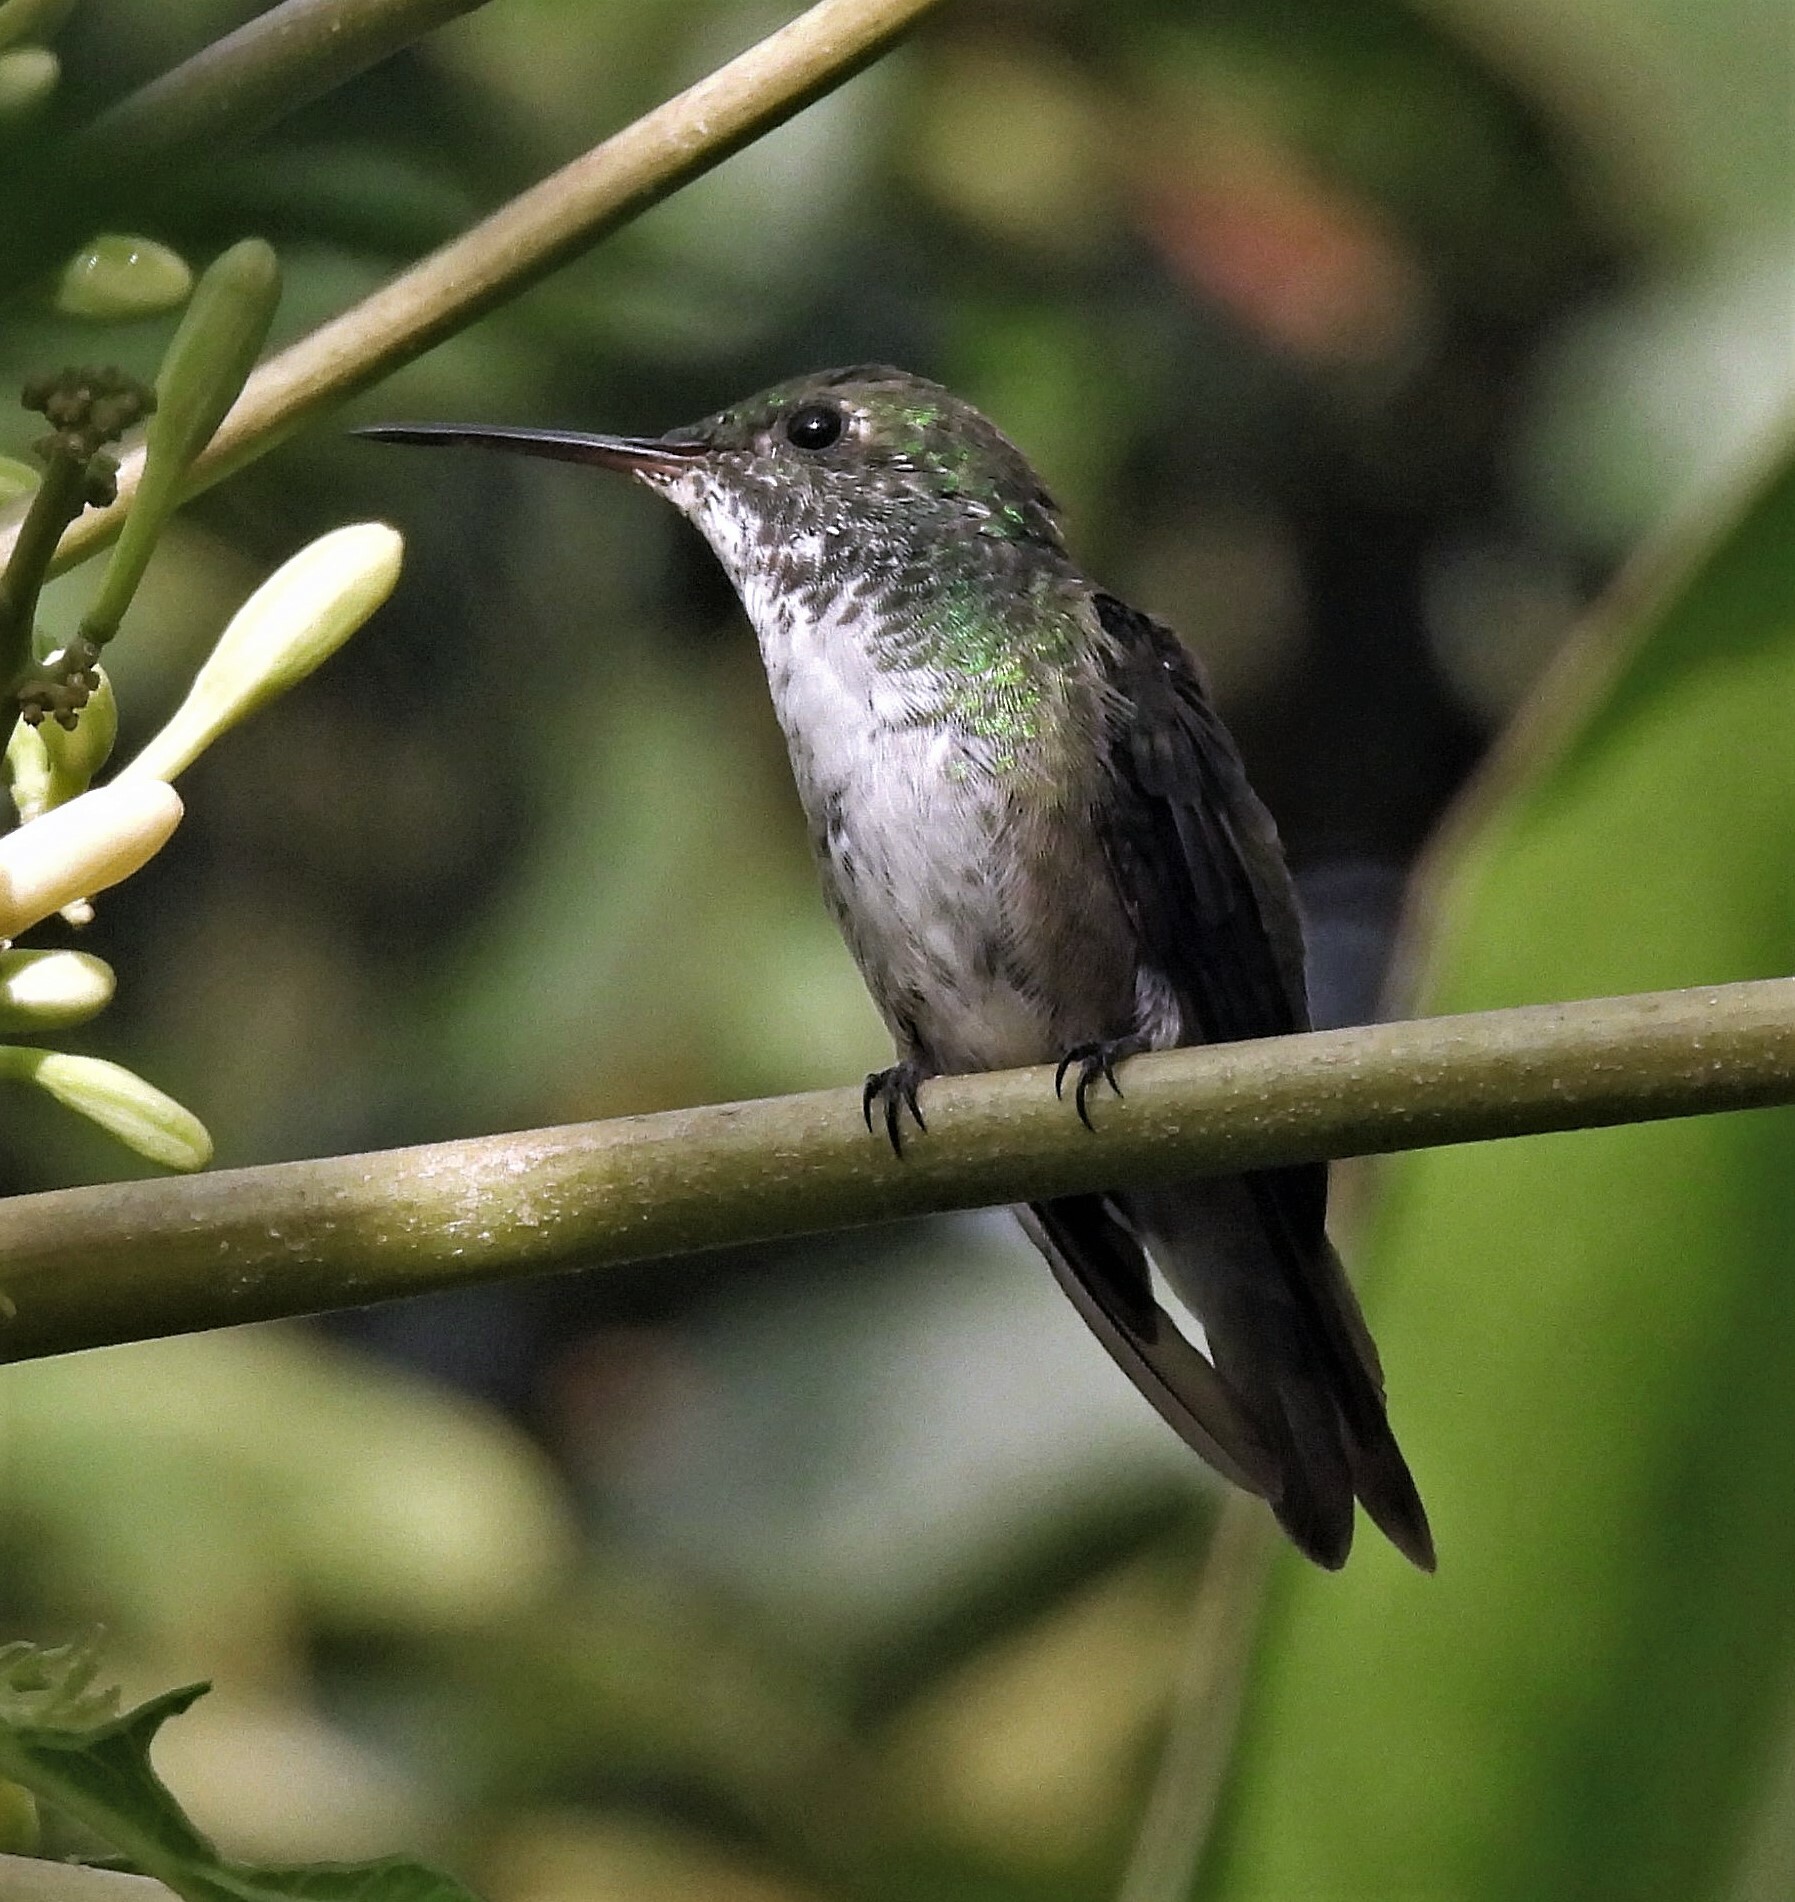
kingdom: Animalia
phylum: Chordata
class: Aves
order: Apodiformes
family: Trochilidae
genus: Chrysuronia
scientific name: Chrysuronia versicolor
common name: Versicolored emerald
